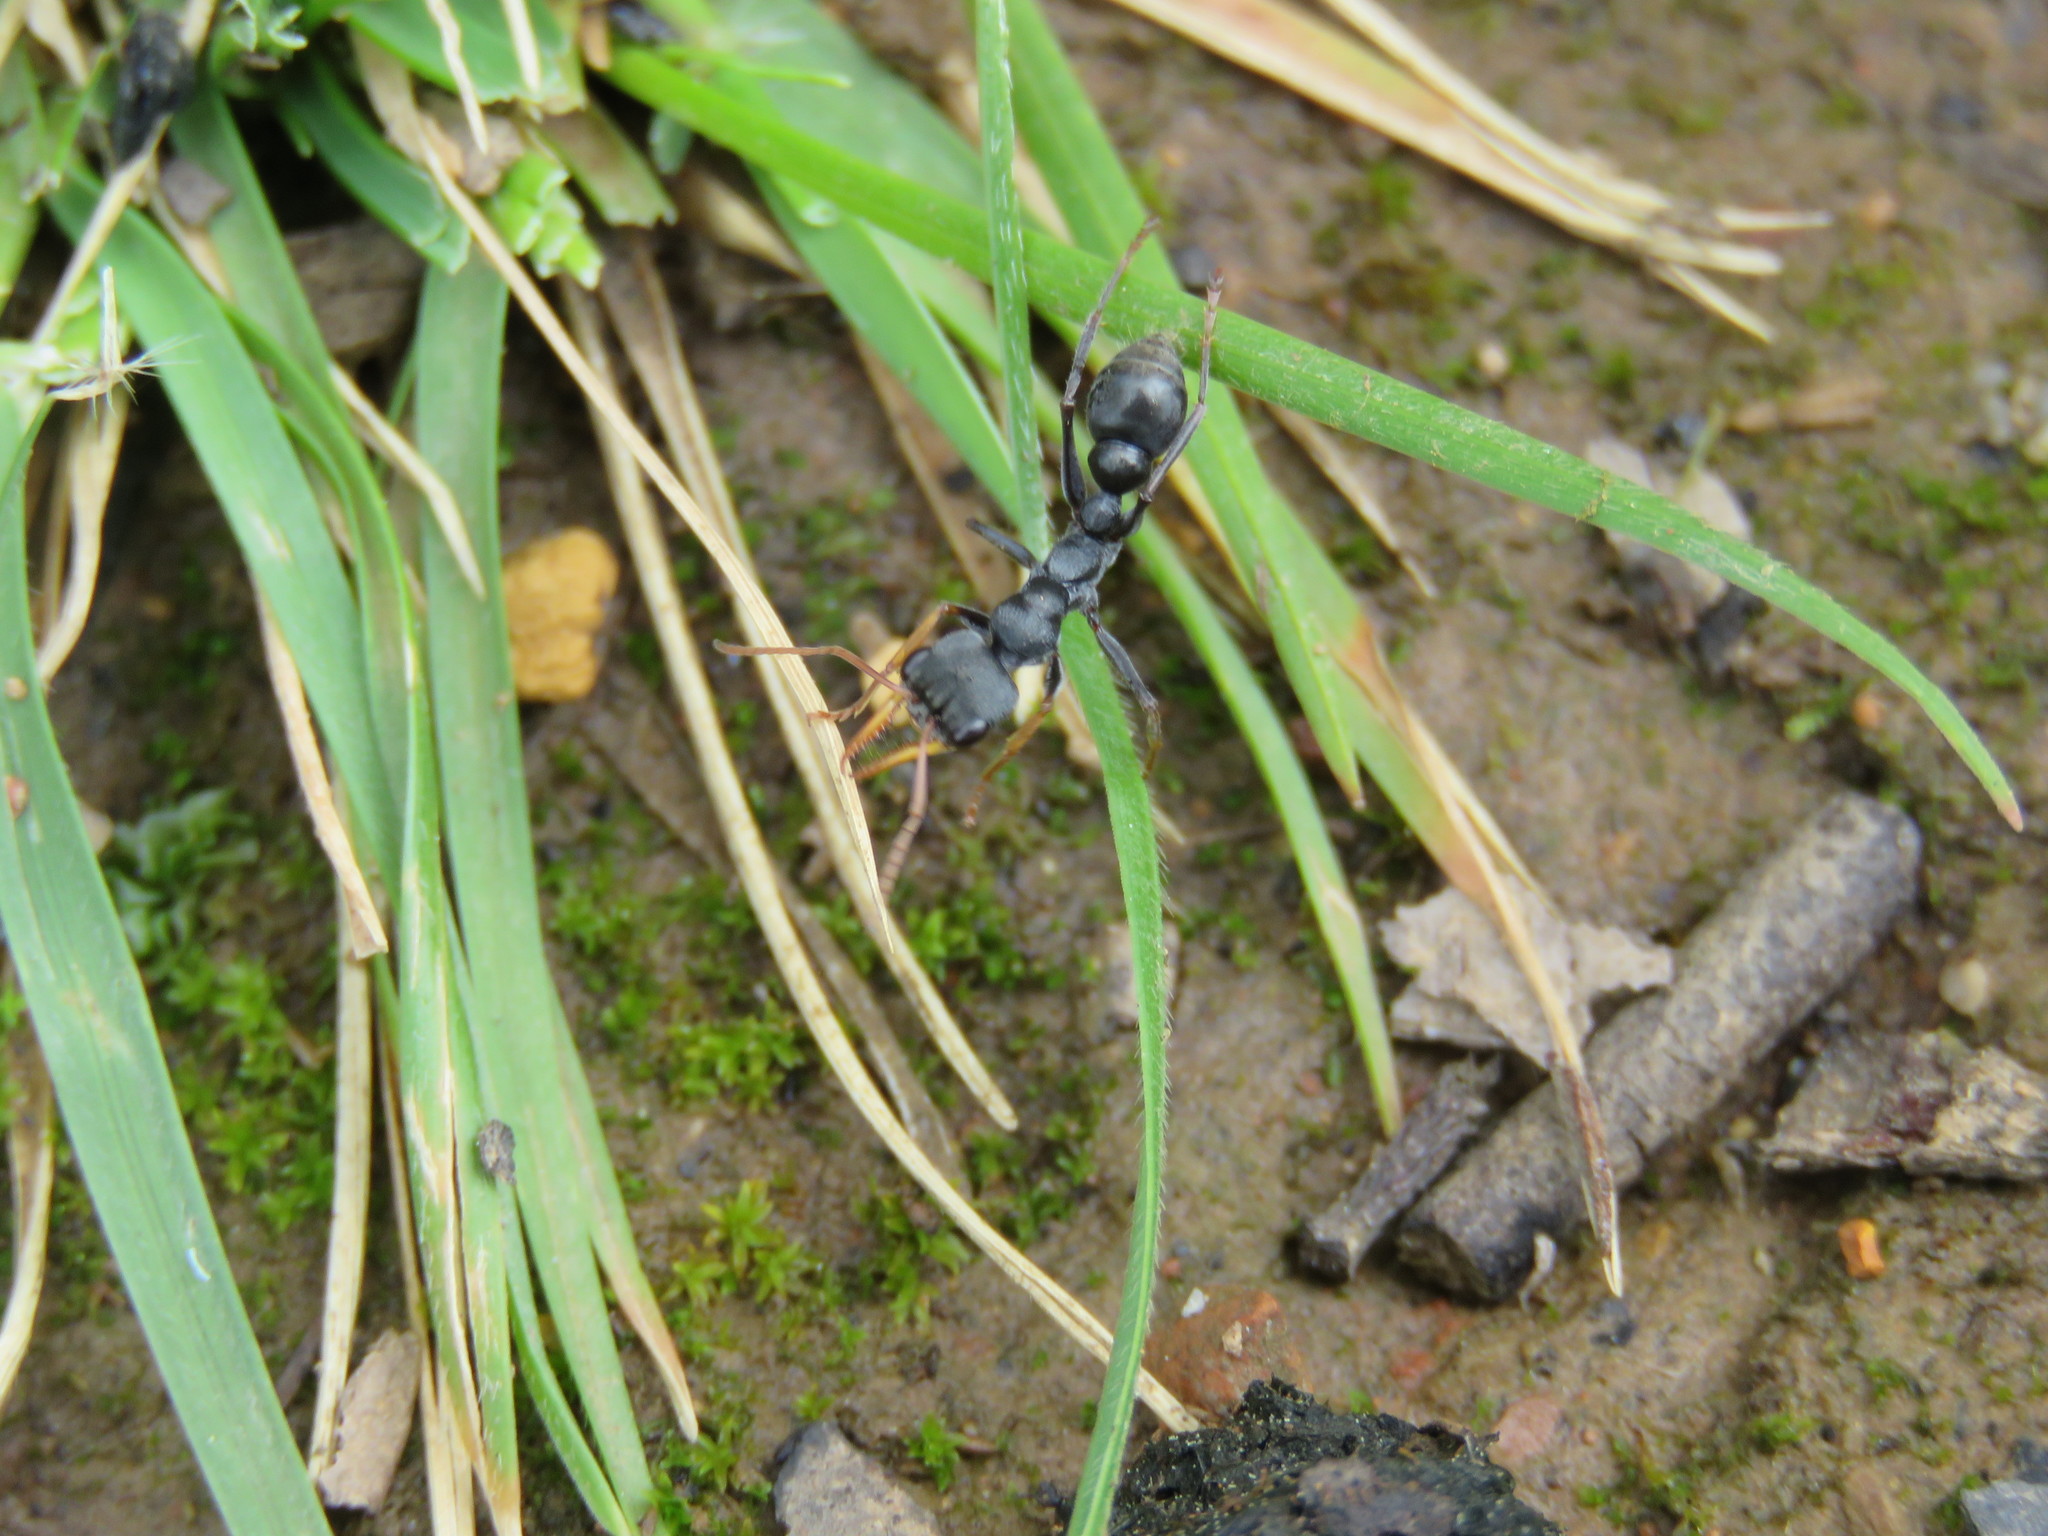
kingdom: Animalia
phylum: Arthropoda
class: Insecta
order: Hymenoptera
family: Formicidae
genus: Myrmecia
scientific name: Myrmecia pilosula
